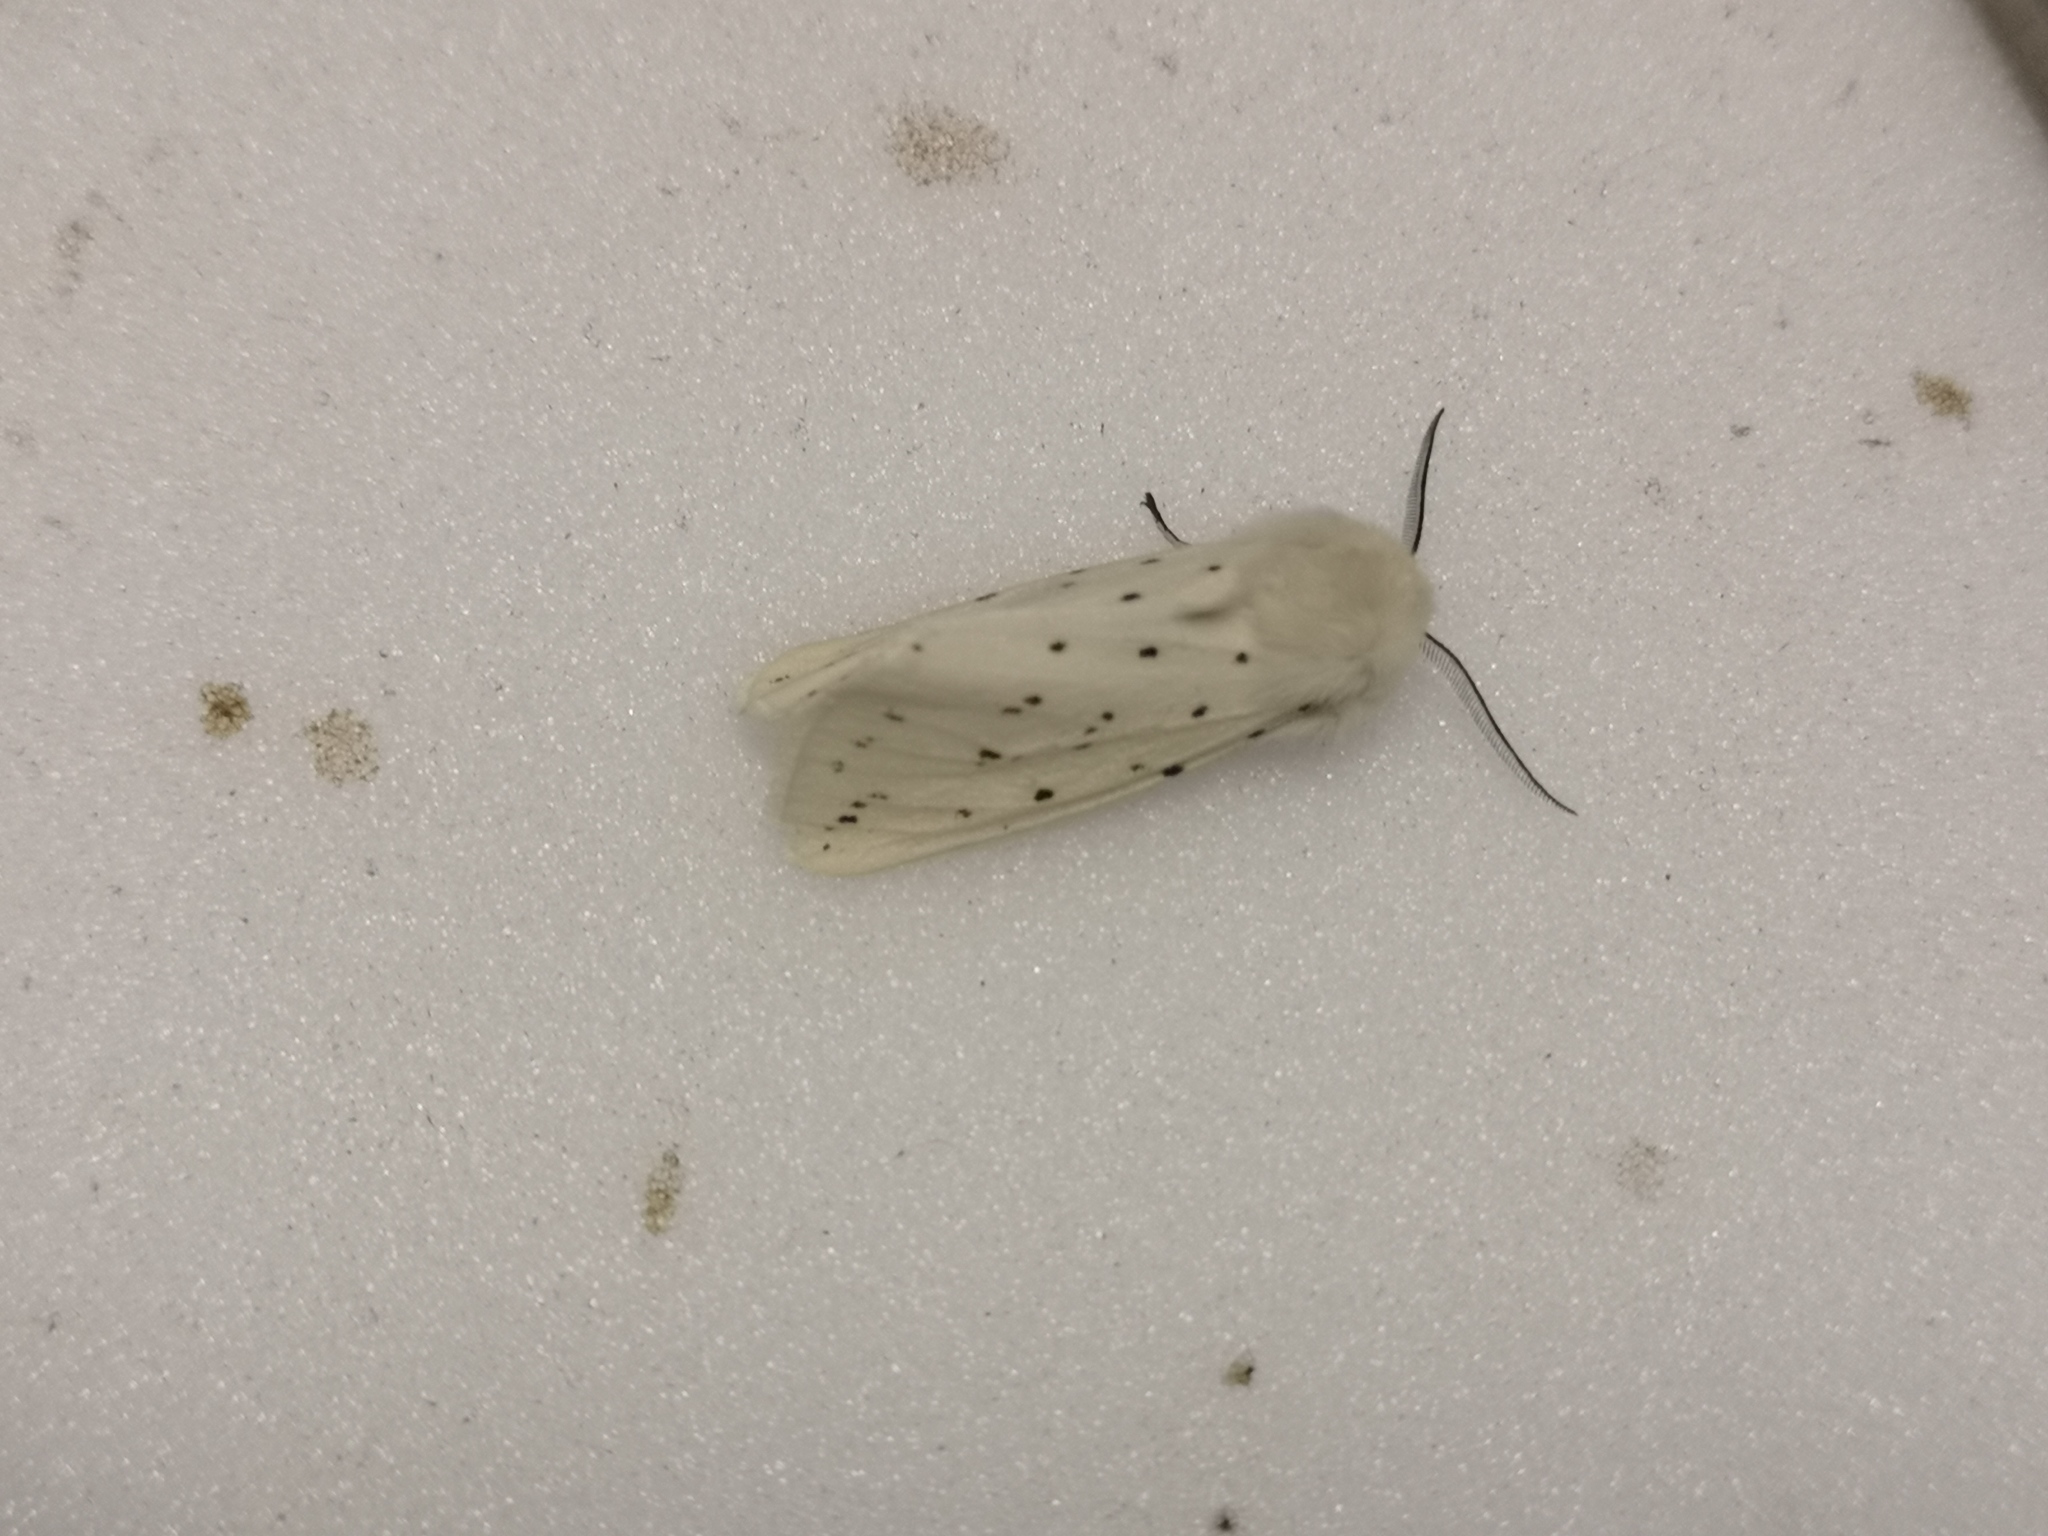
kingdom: Animalia
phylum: Arthropoda
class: Insecta
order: Lepidoptera
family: Erebidae
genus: Spilosoma
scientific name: Spilosoma lubricipeda
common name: White ermine
